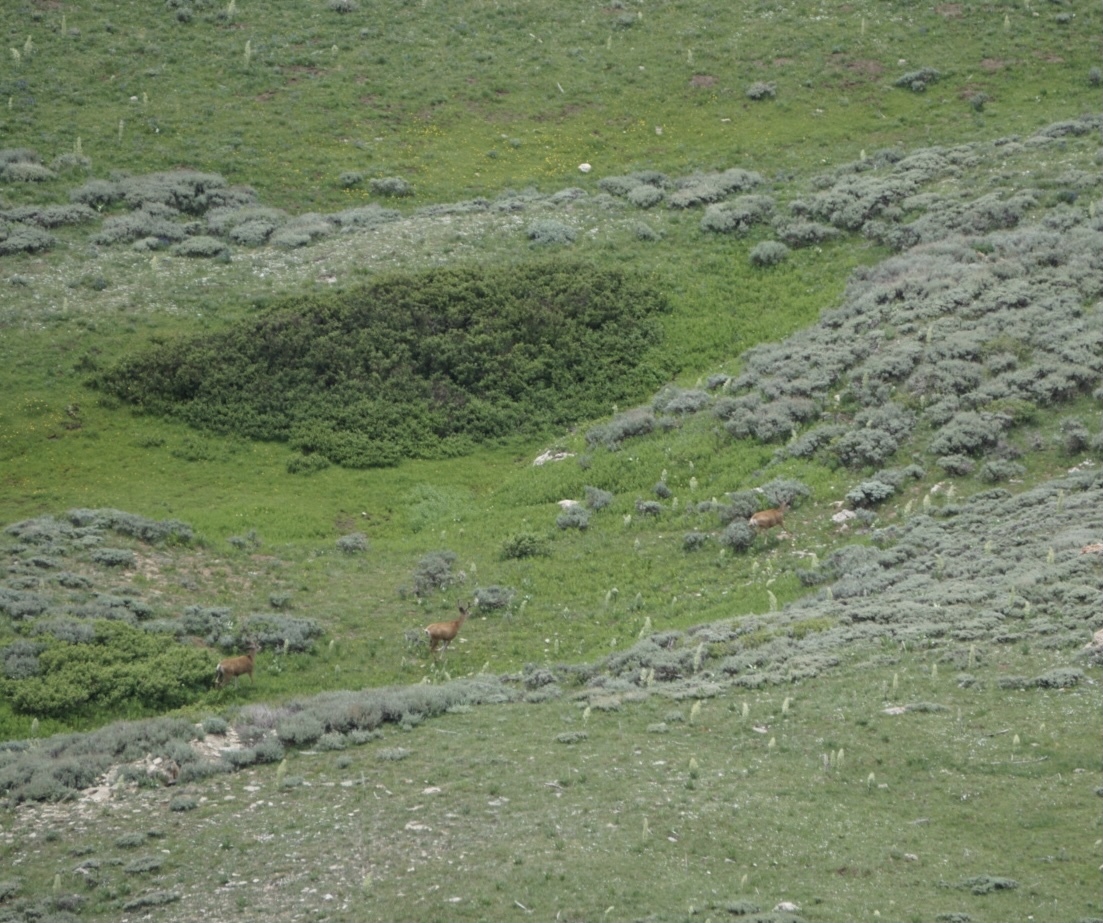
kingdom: Animalia
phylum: Chordata
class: Mammalia
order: Artiodactyla
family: Cervidae
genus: Odocoileus
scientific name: Odocoileus hemionus
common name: Mule deer
